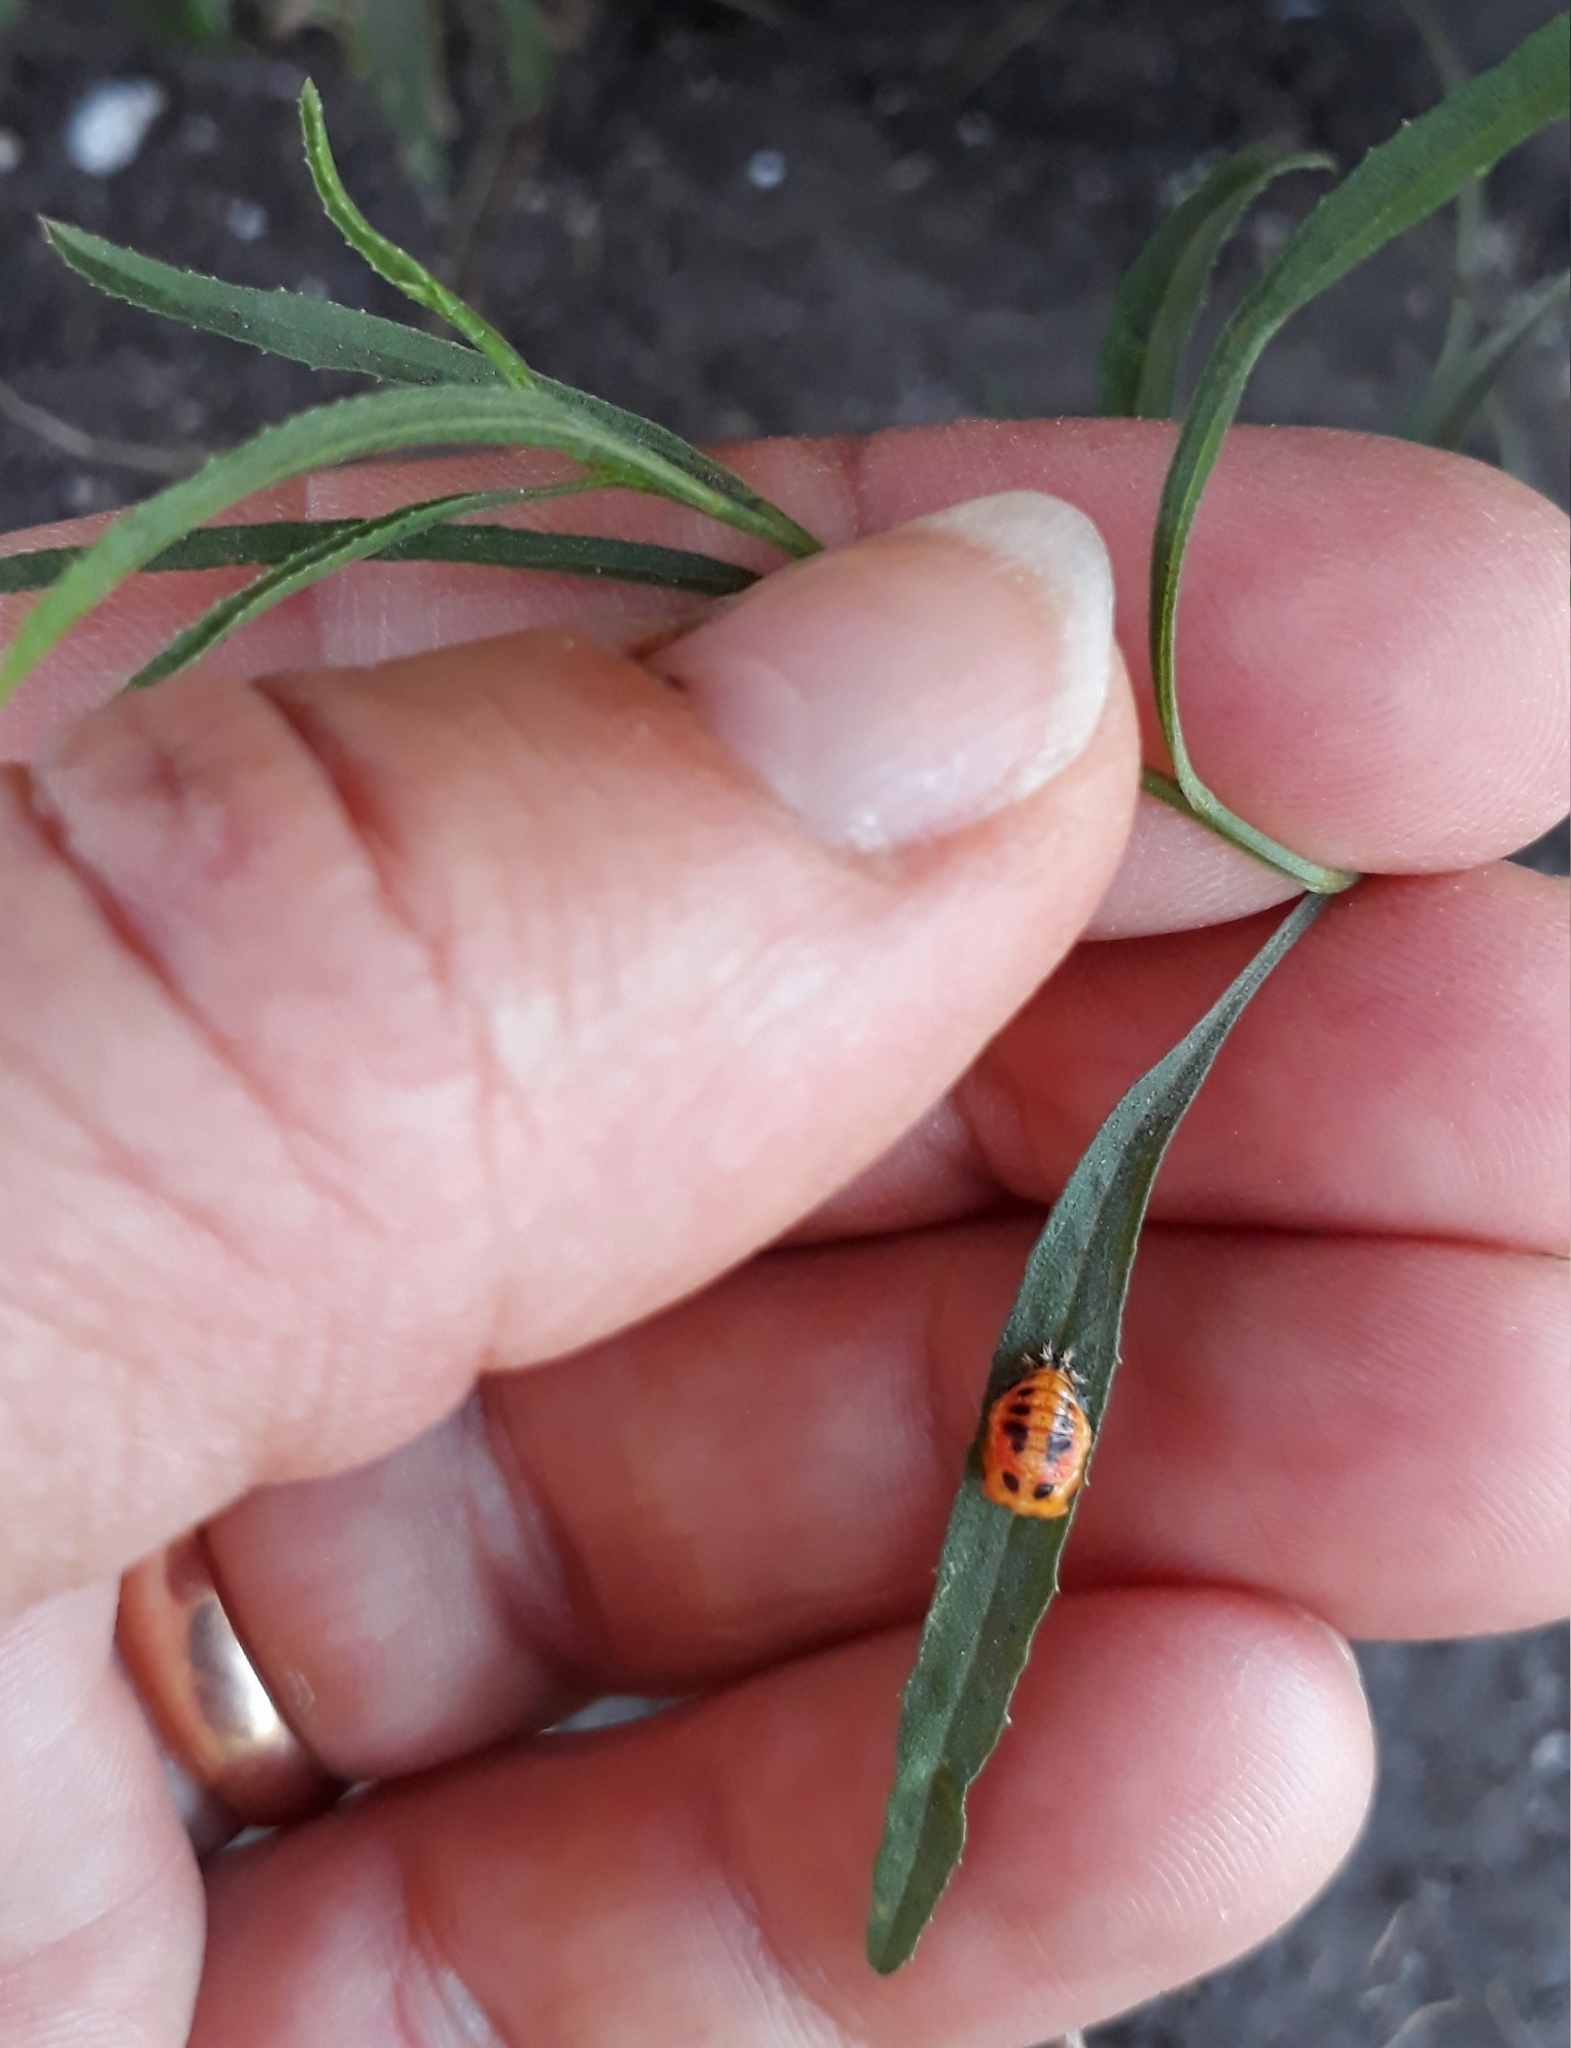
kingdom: Animalia
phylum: Arthropoda
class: Insecta
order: Coleoptera
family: Coccinellidae
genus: Harmonia
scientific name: Harmonia axyridis
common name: Harlequin ladybird
